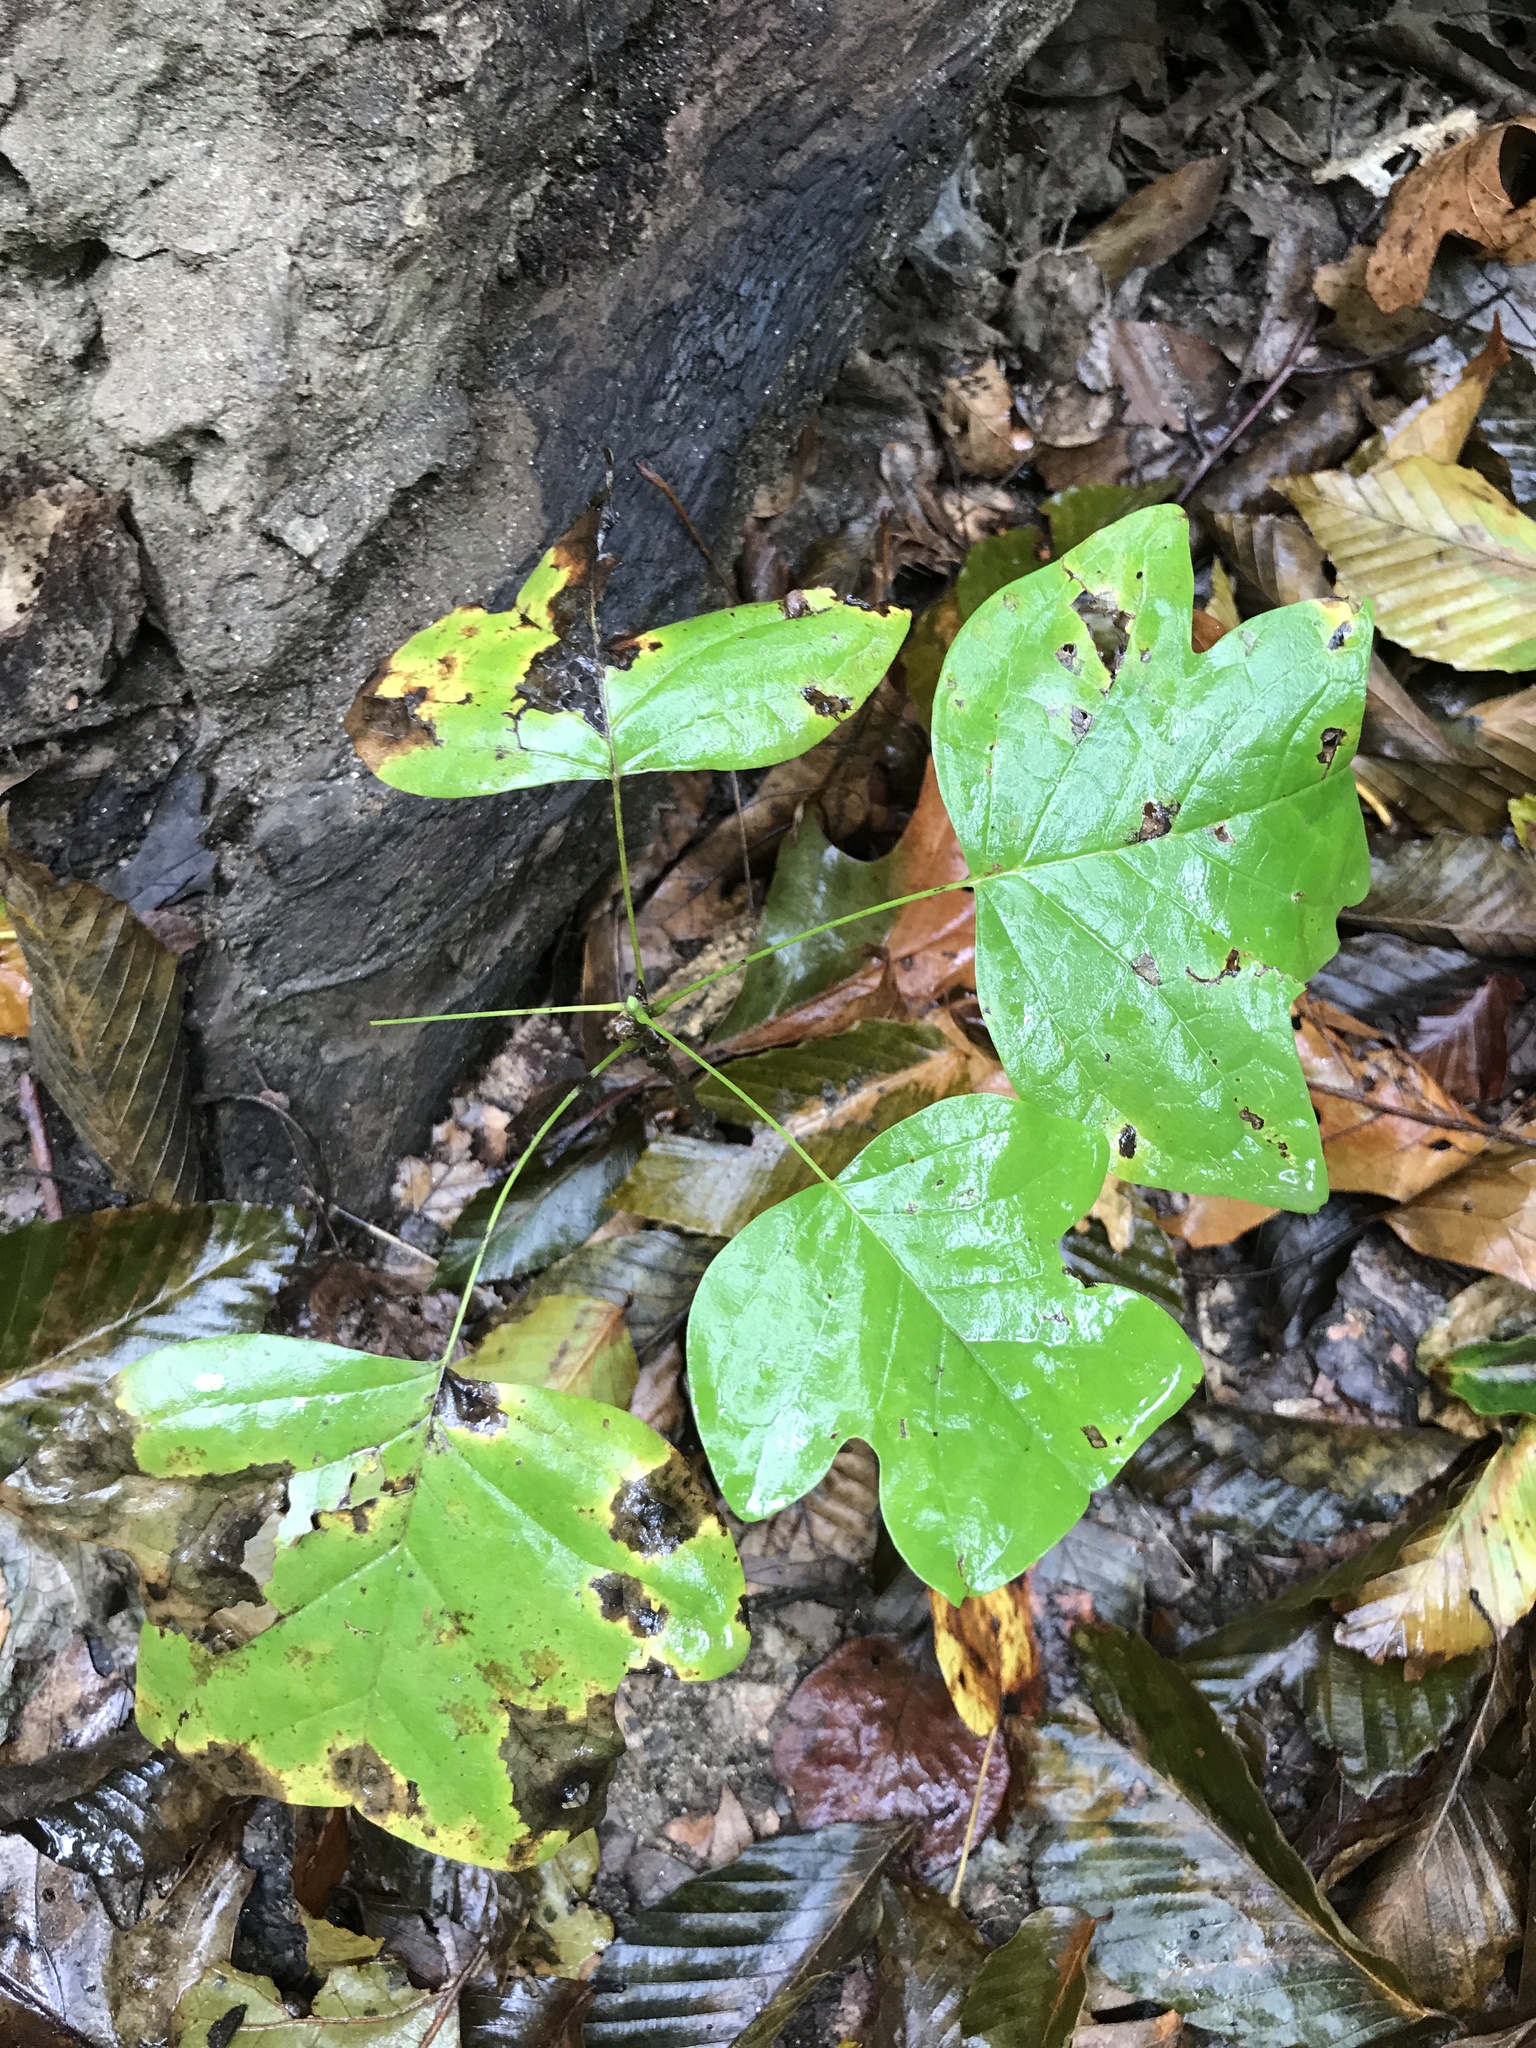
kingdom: Plantae
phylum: Tracheophyta
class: Magnoliopsida
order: Magnoliales
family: Magnoliaceae
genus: Liriodendron
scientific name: Liriodendron tulipifera
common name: Tulip tree
